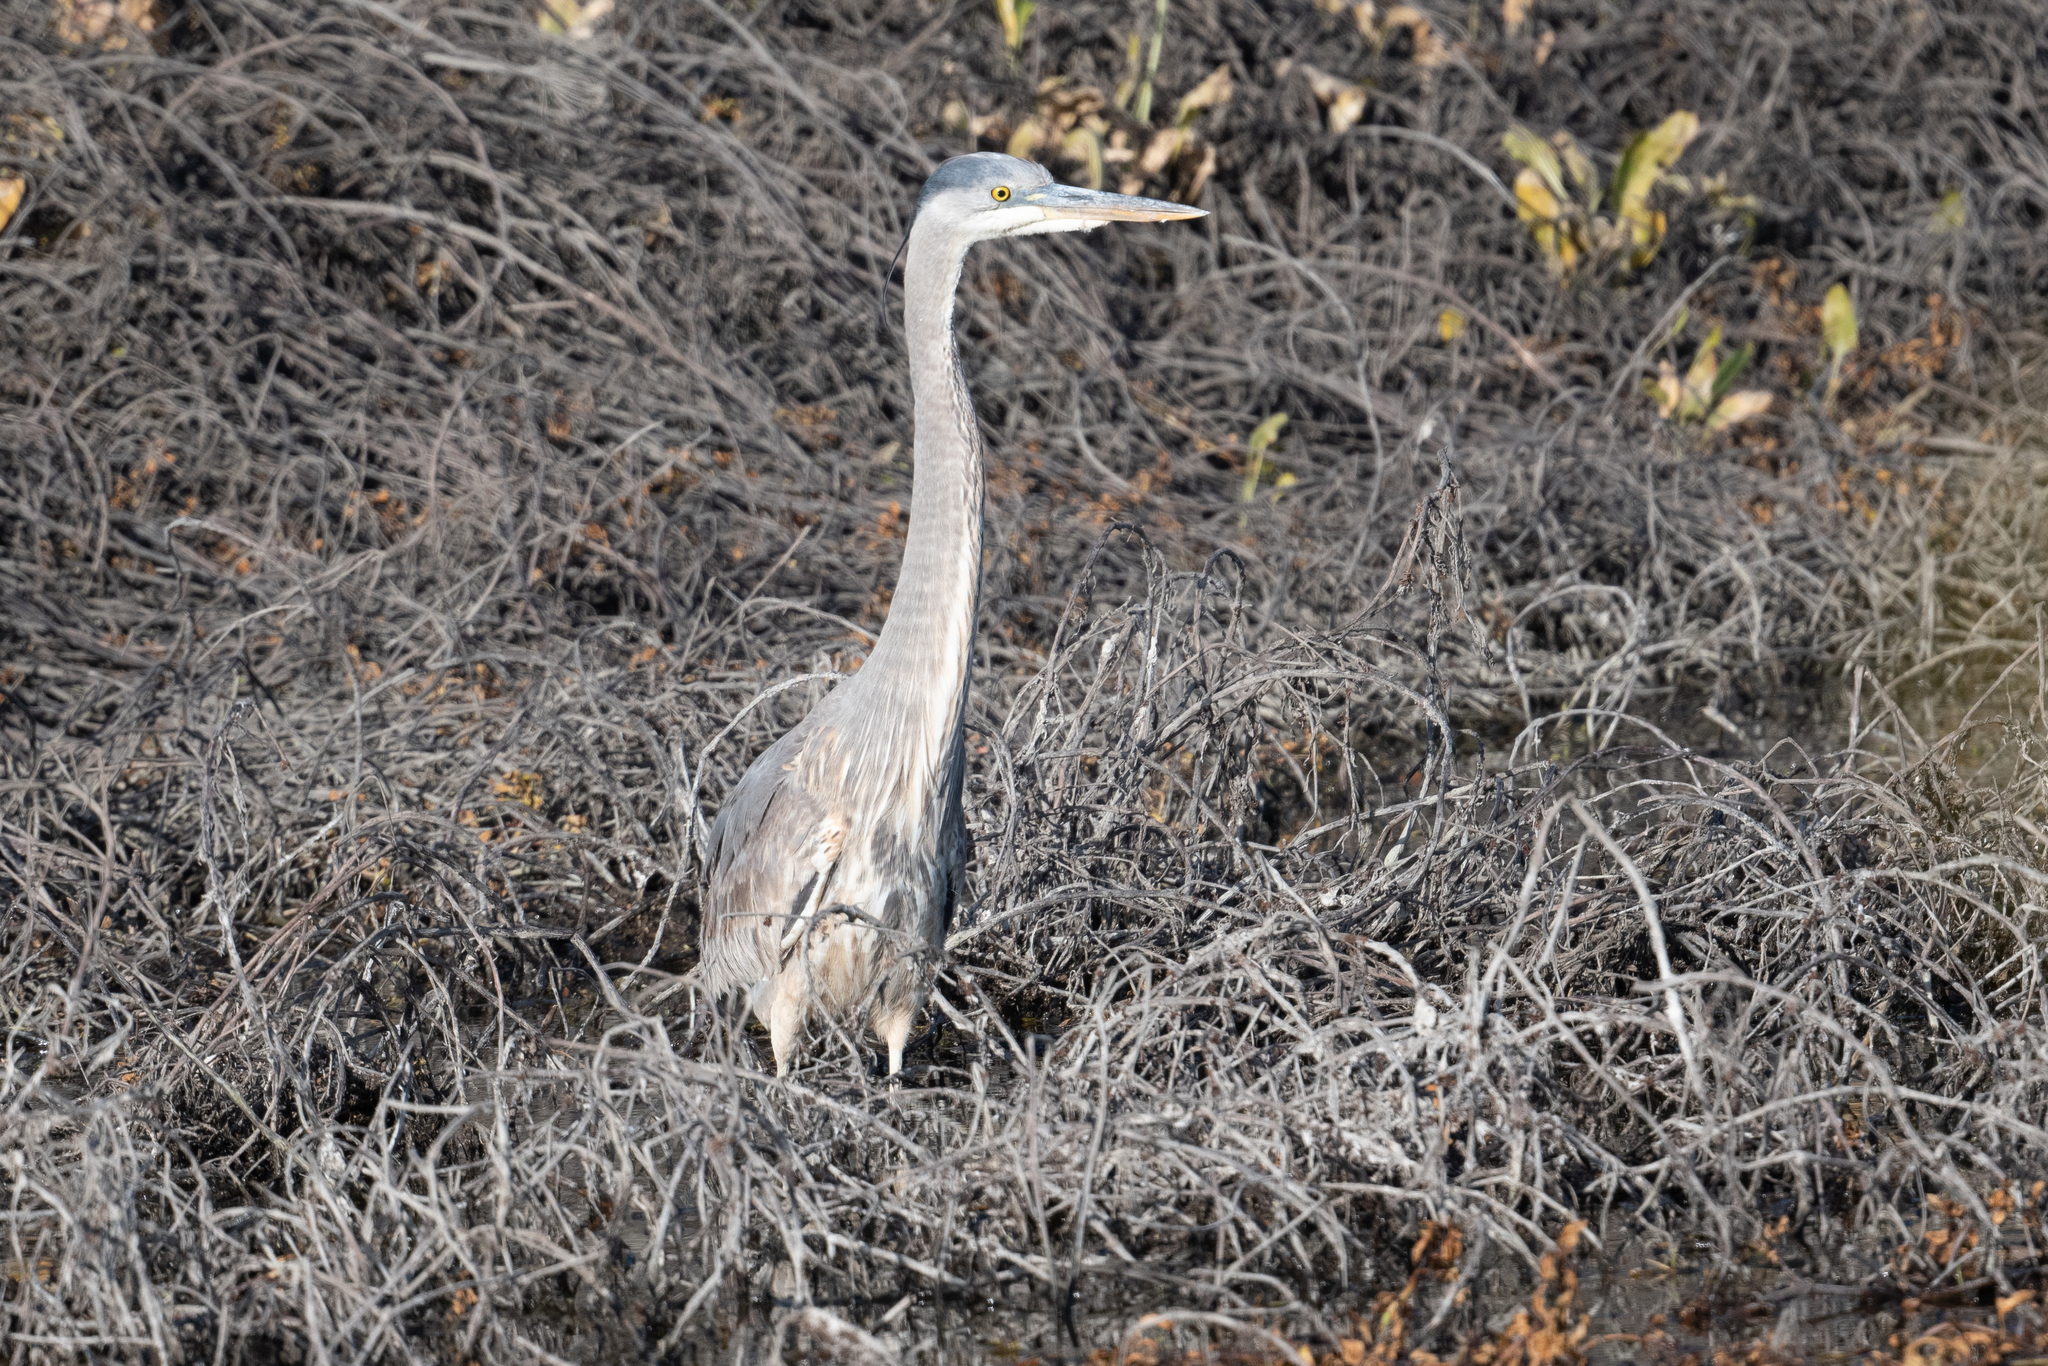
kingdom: Animalia
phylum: Chordata
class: Aves
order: Pelecaniformes
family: Ardeidae
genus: Ardea
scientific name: Ardea herodias
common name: Great blue heron
